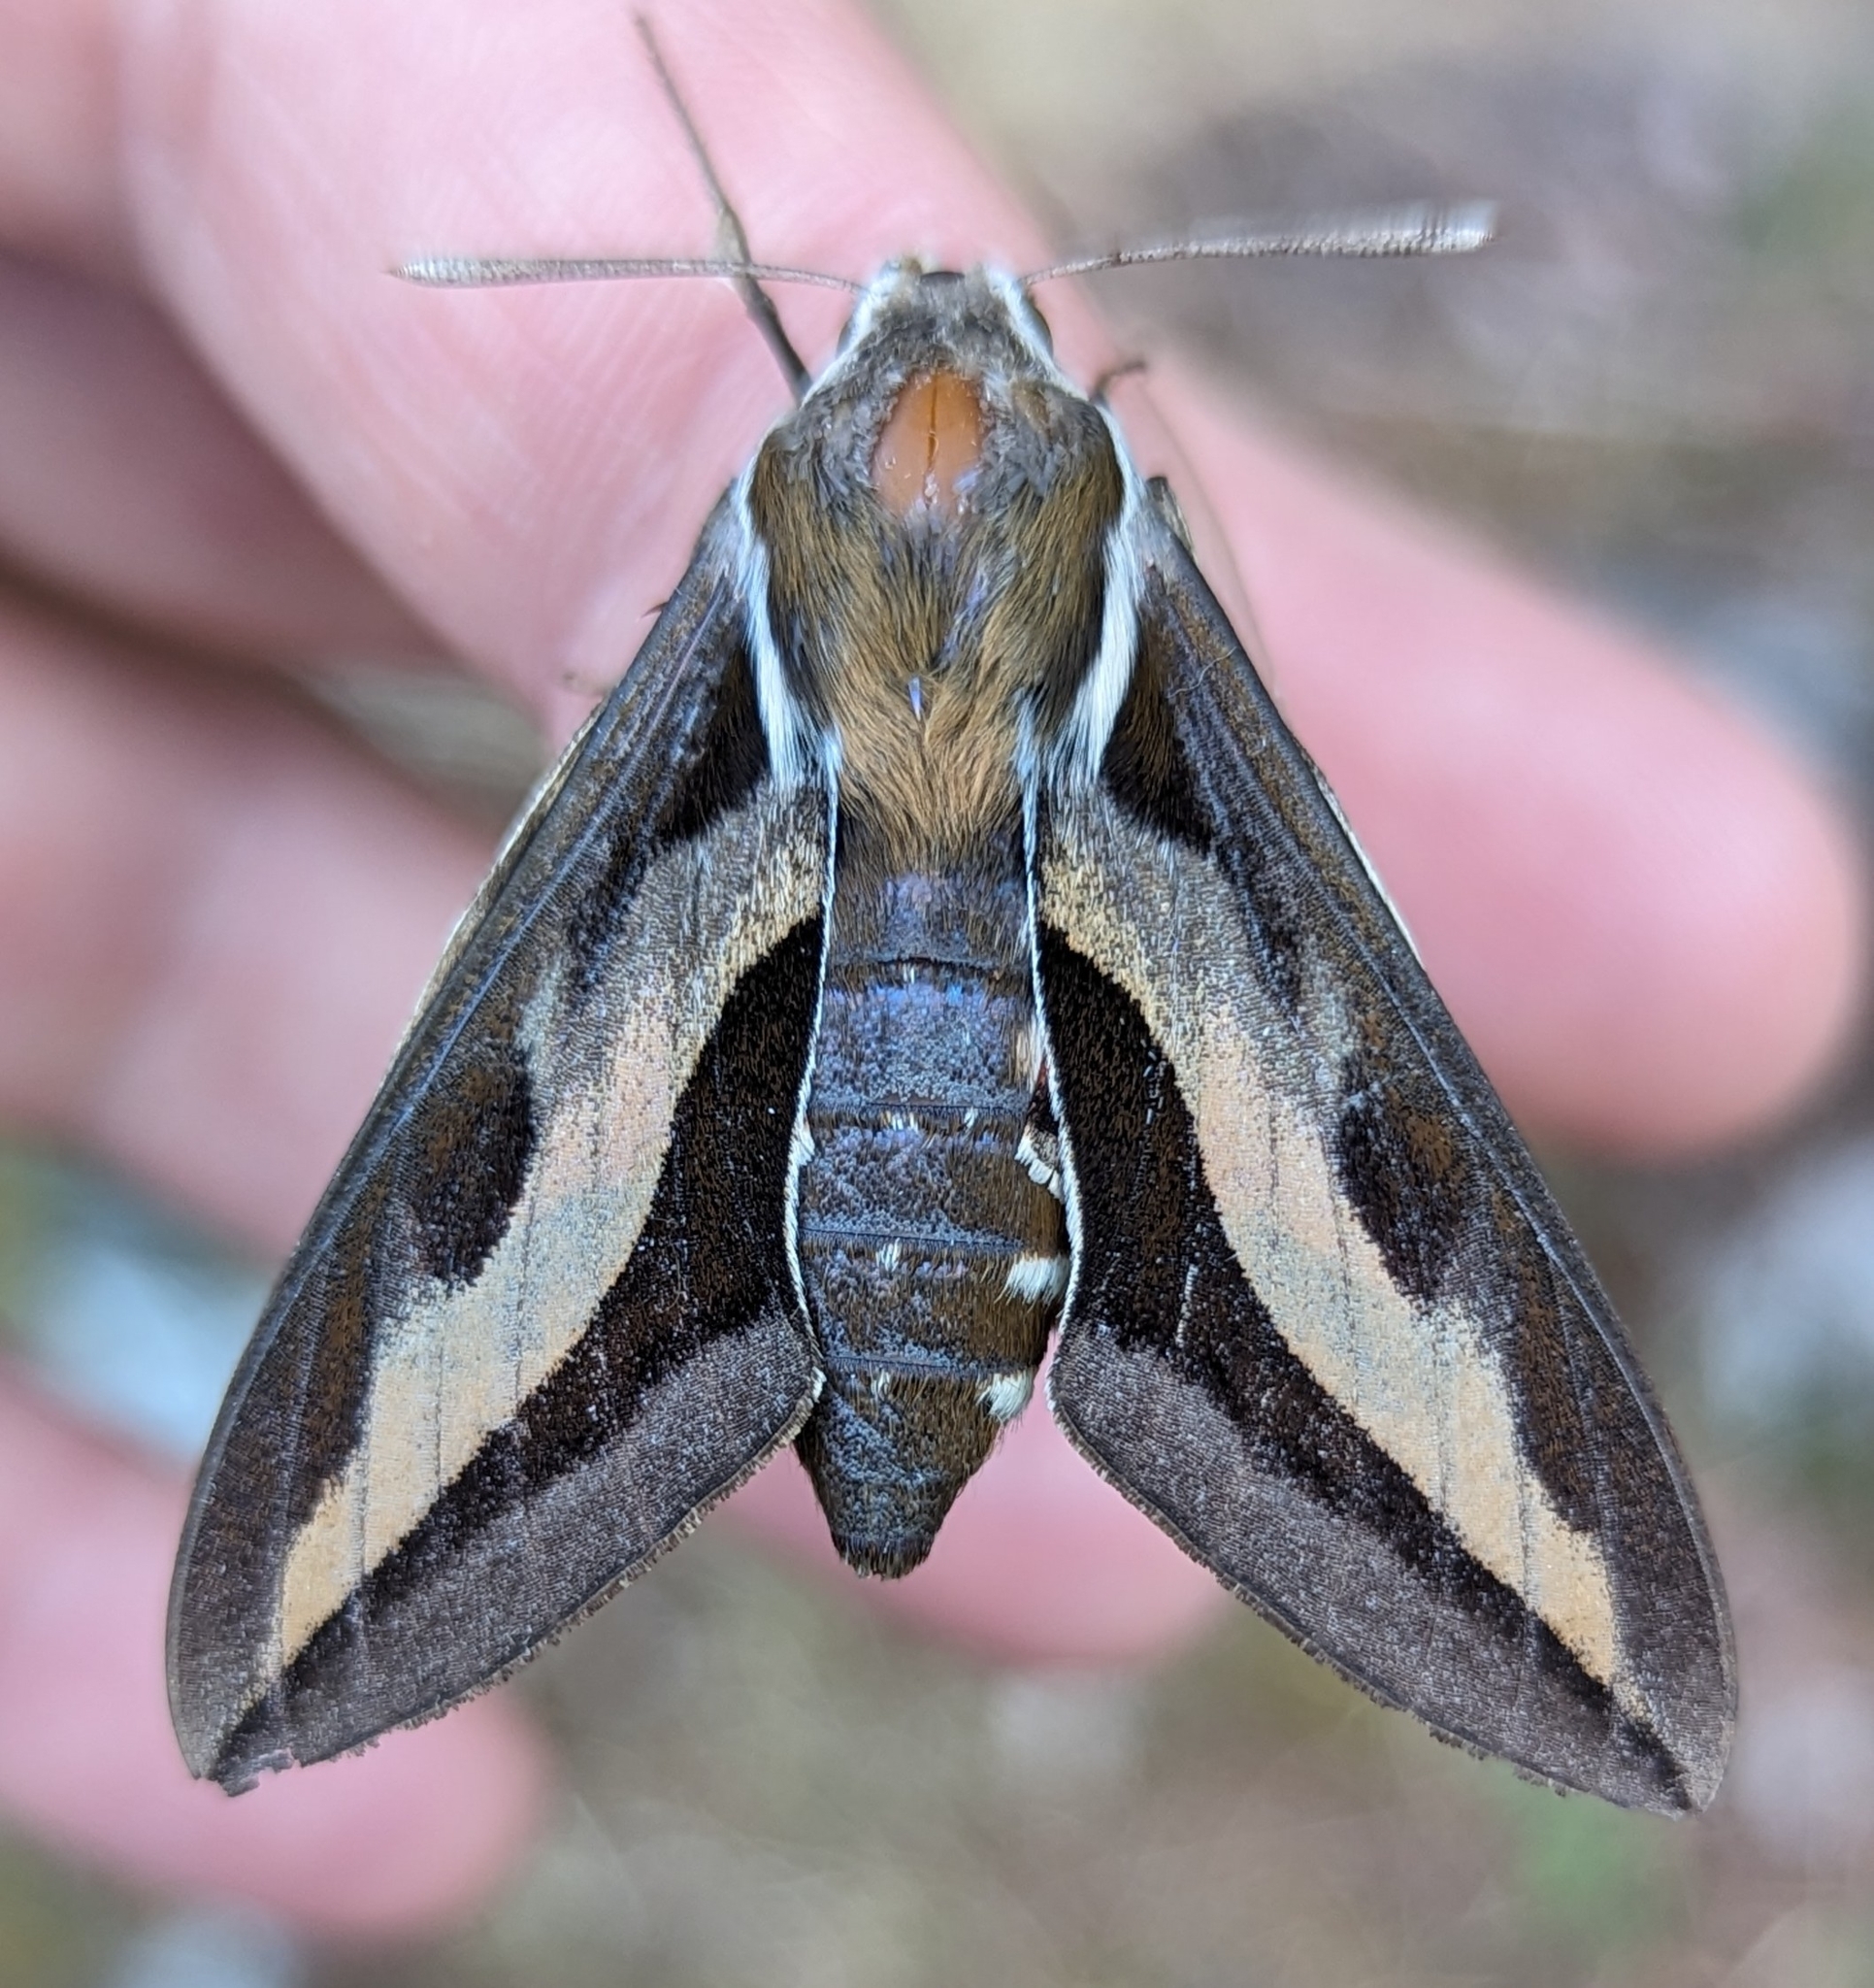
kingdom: Animalia
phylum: Arthropoda
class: Insecta
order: Lepidoptera
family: Sphingidae
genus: Hyles
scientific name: Hyles gallii
